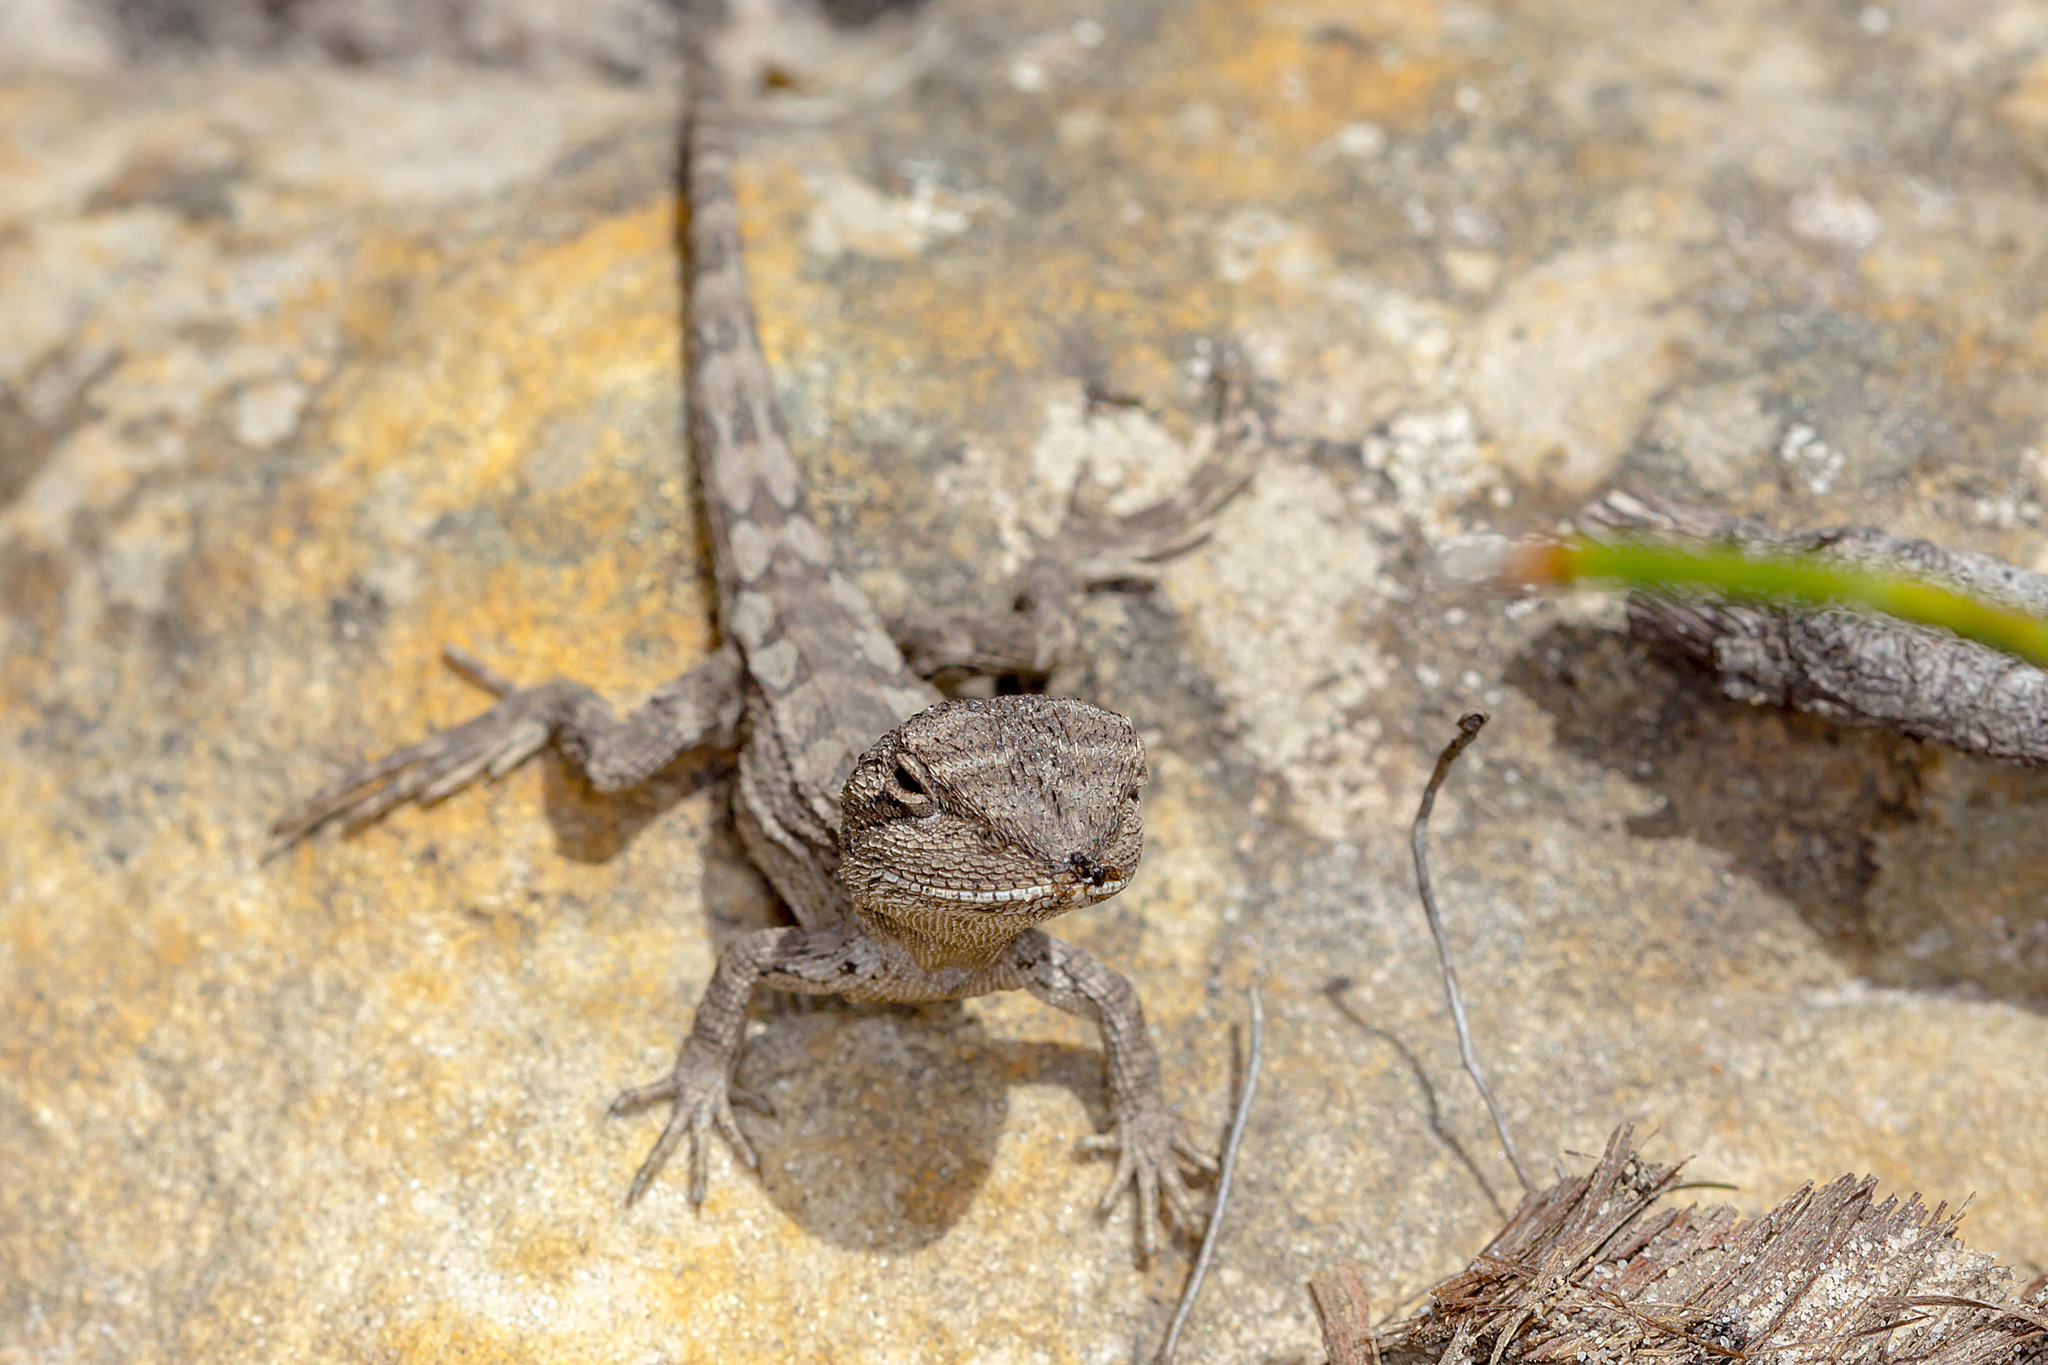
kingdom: Animalia
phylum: Chordata
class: Squamata
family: Agamidae
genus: Amphibolurus
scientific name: Amphibolurus muricatus
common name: Jacky lizard
